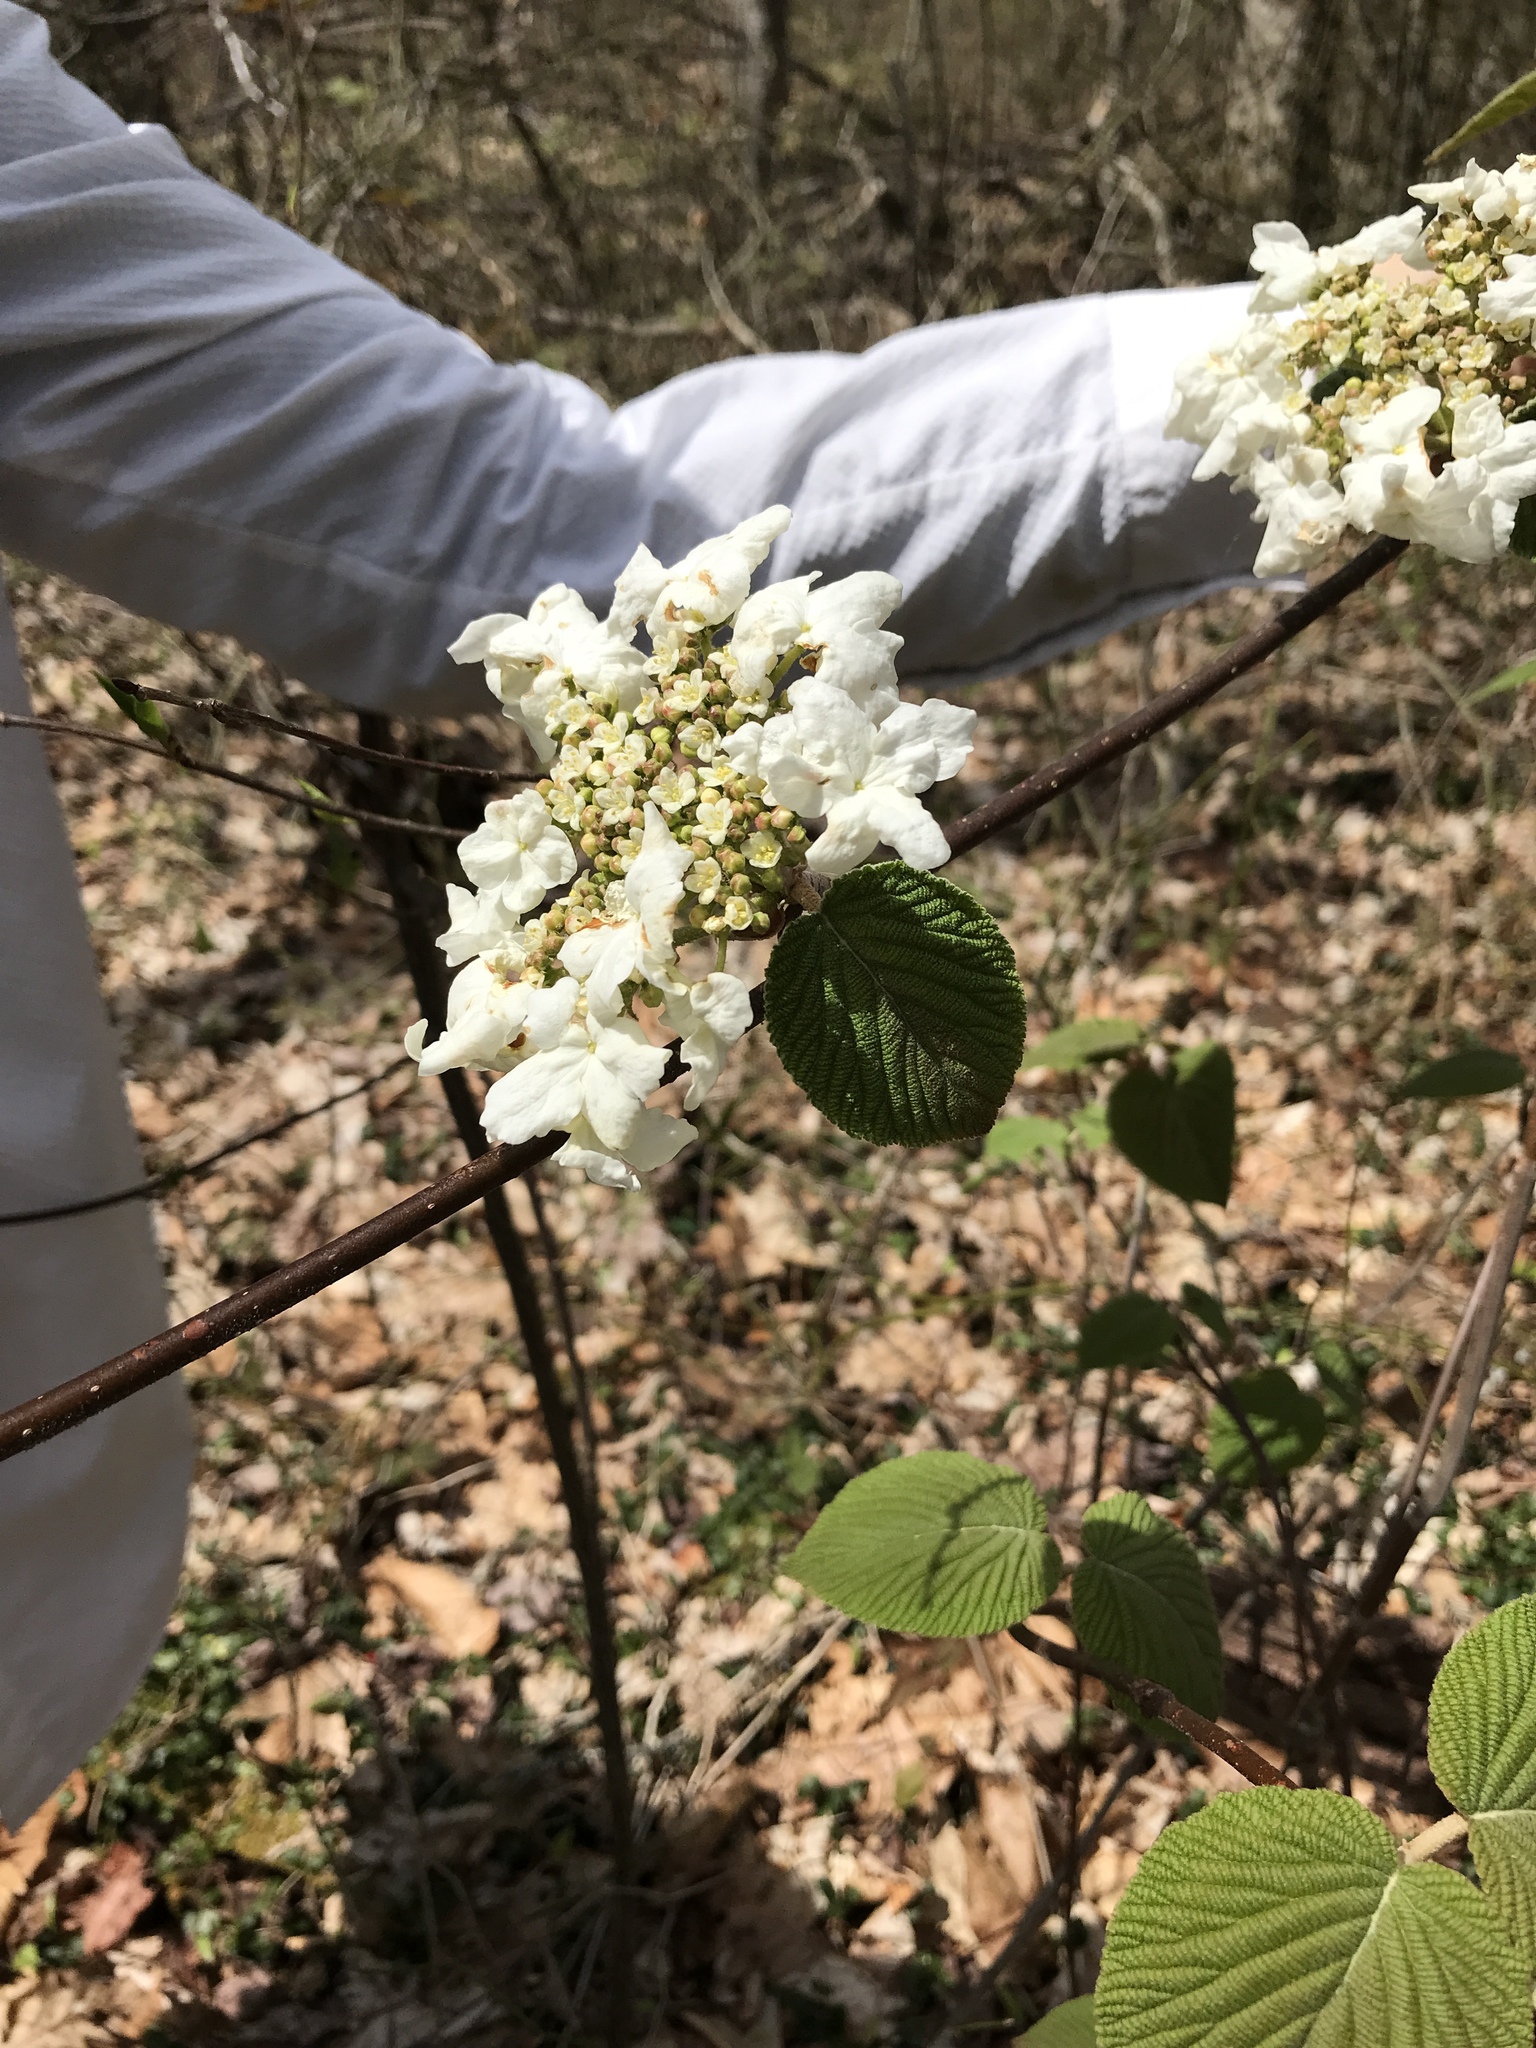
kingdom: Plantae
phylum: Tracheophyta
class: Magnoliopsida
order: Dipsacales
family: Viburnaceae
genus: Viburnum
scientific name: Viburnum lantanoides
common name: Hobblebush
